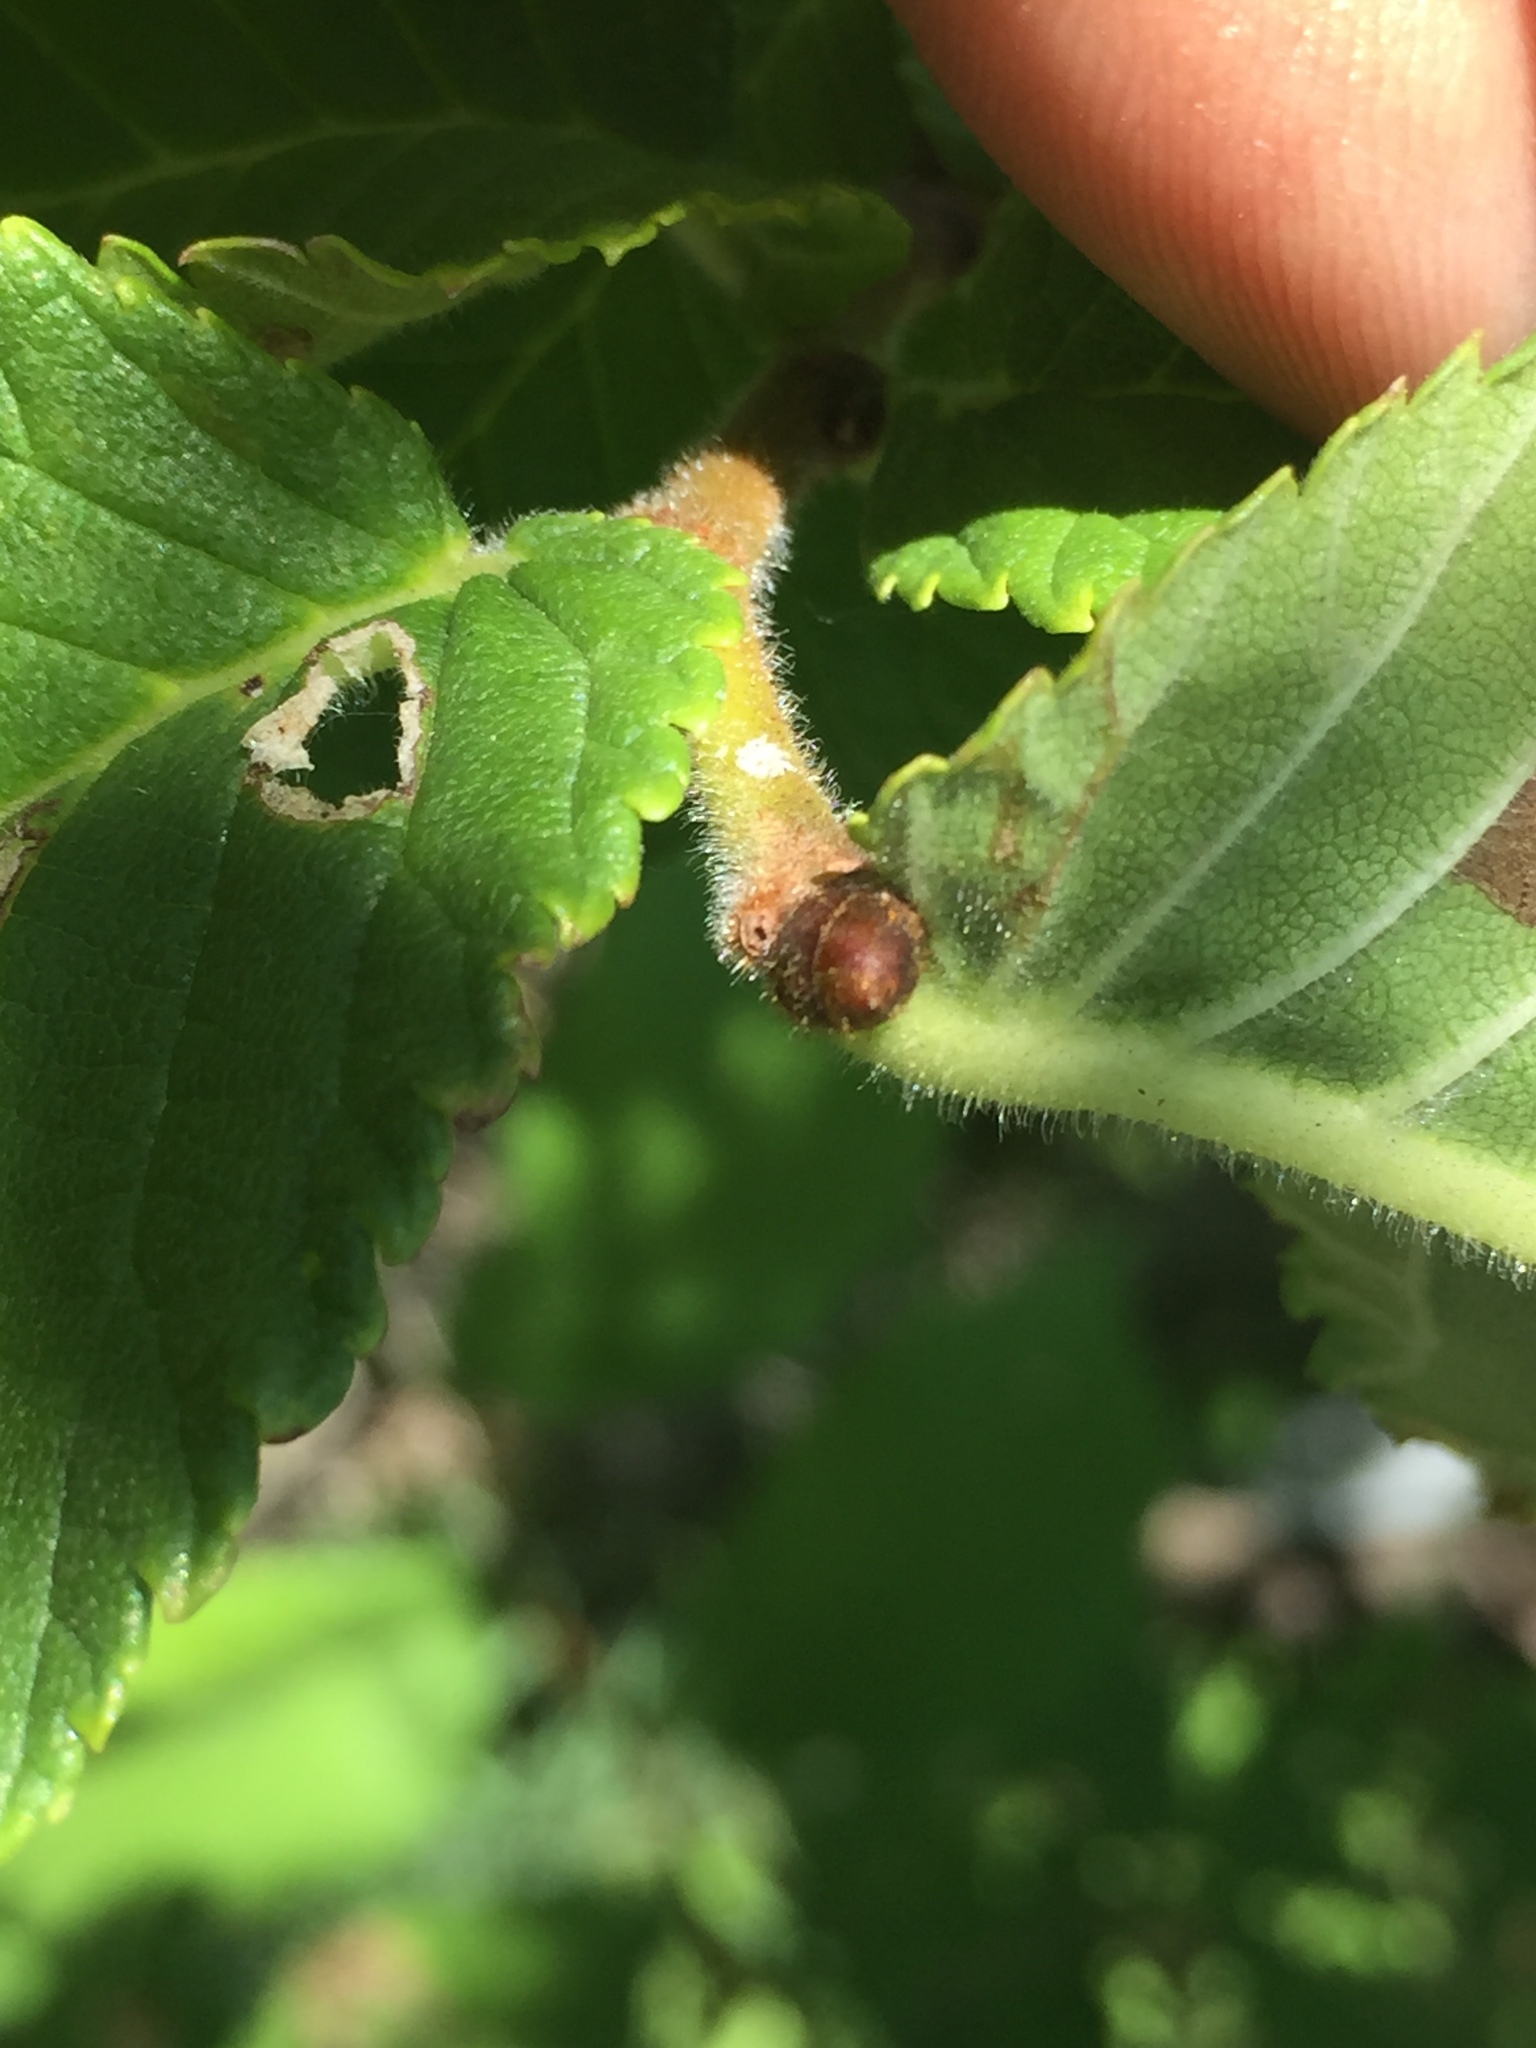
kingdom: Plantae
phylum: Tracheophyta
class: Magnoliopsida
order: Rosales
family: Ulmaceae
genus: Ulmus
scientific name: Ulmus rubra
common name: Slippery elm
